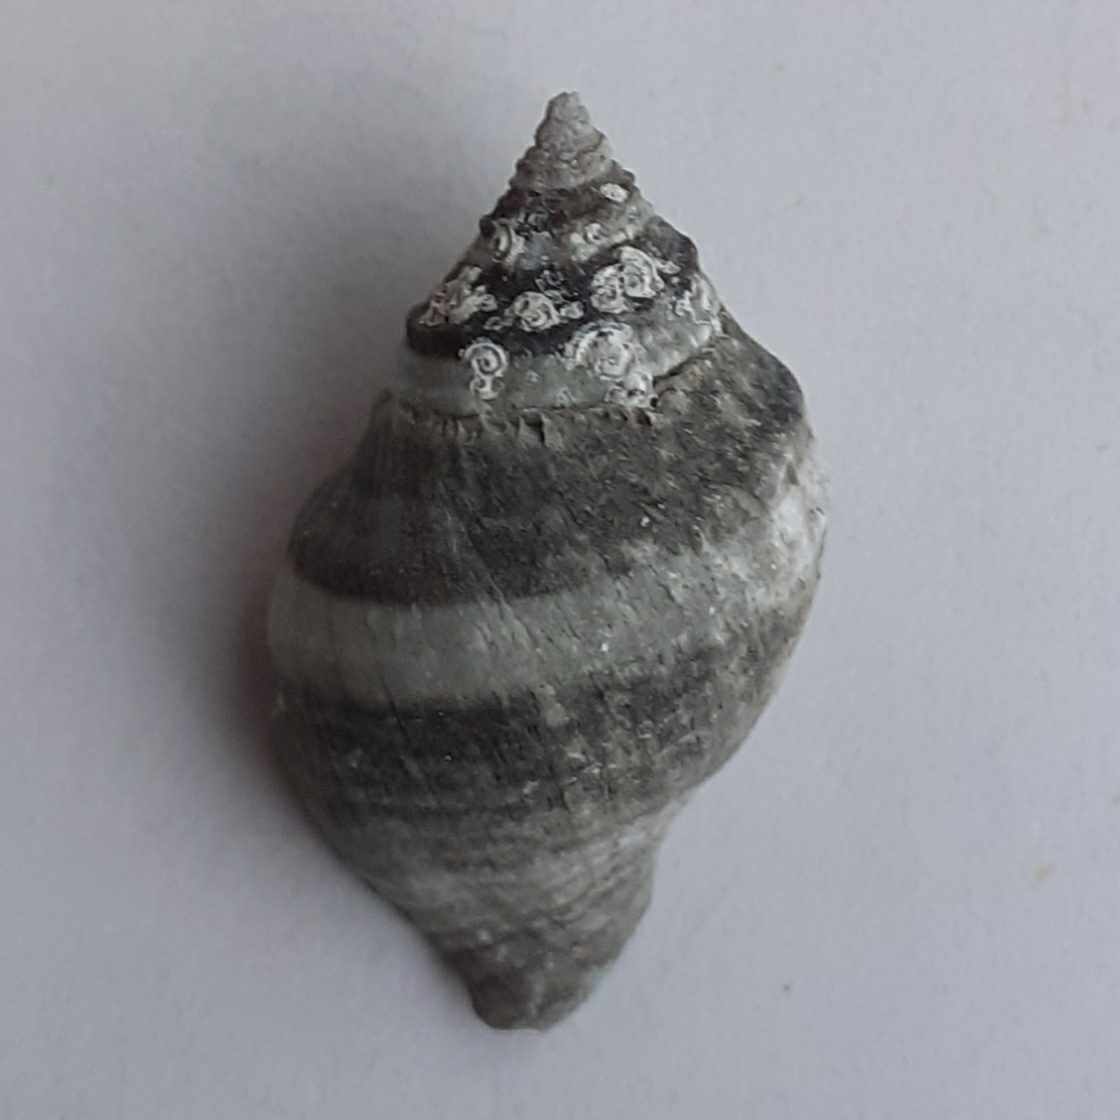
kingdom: Animalia
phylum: Mollusca
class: Gastropoda
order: Neogastropoda
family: Muricidae
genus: Nucella
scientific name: Nucella lapillus
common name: Dog whelk
